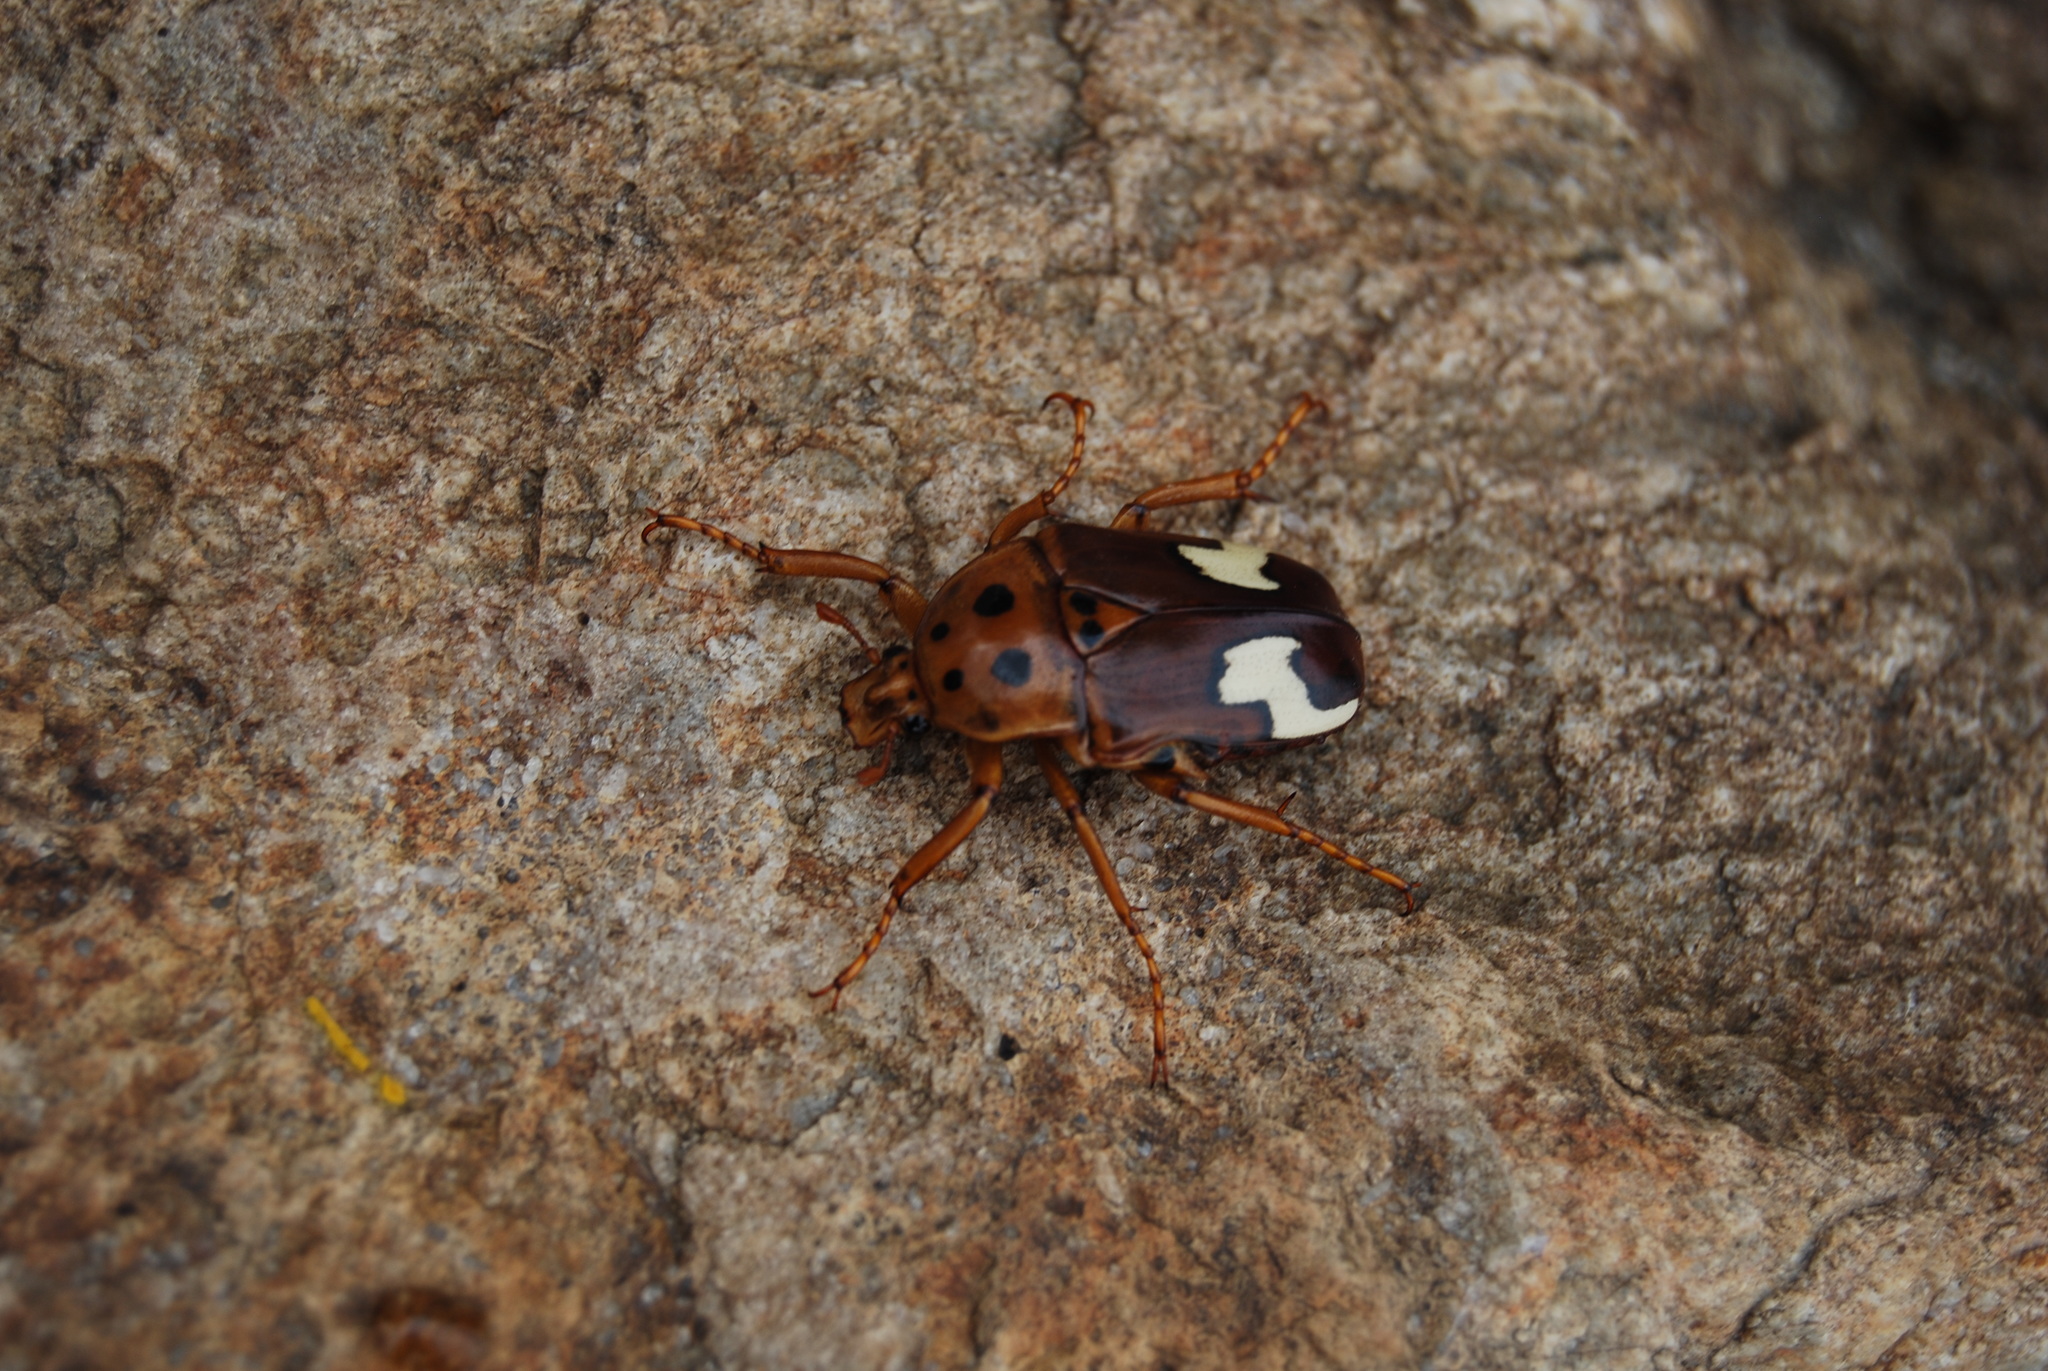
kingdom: Animalia
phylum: Arthropoda
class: Insecta
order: Coleoptera
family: Scarabaeidae
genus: Anisorrhina
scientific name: Anisorrhina flavomaculata
